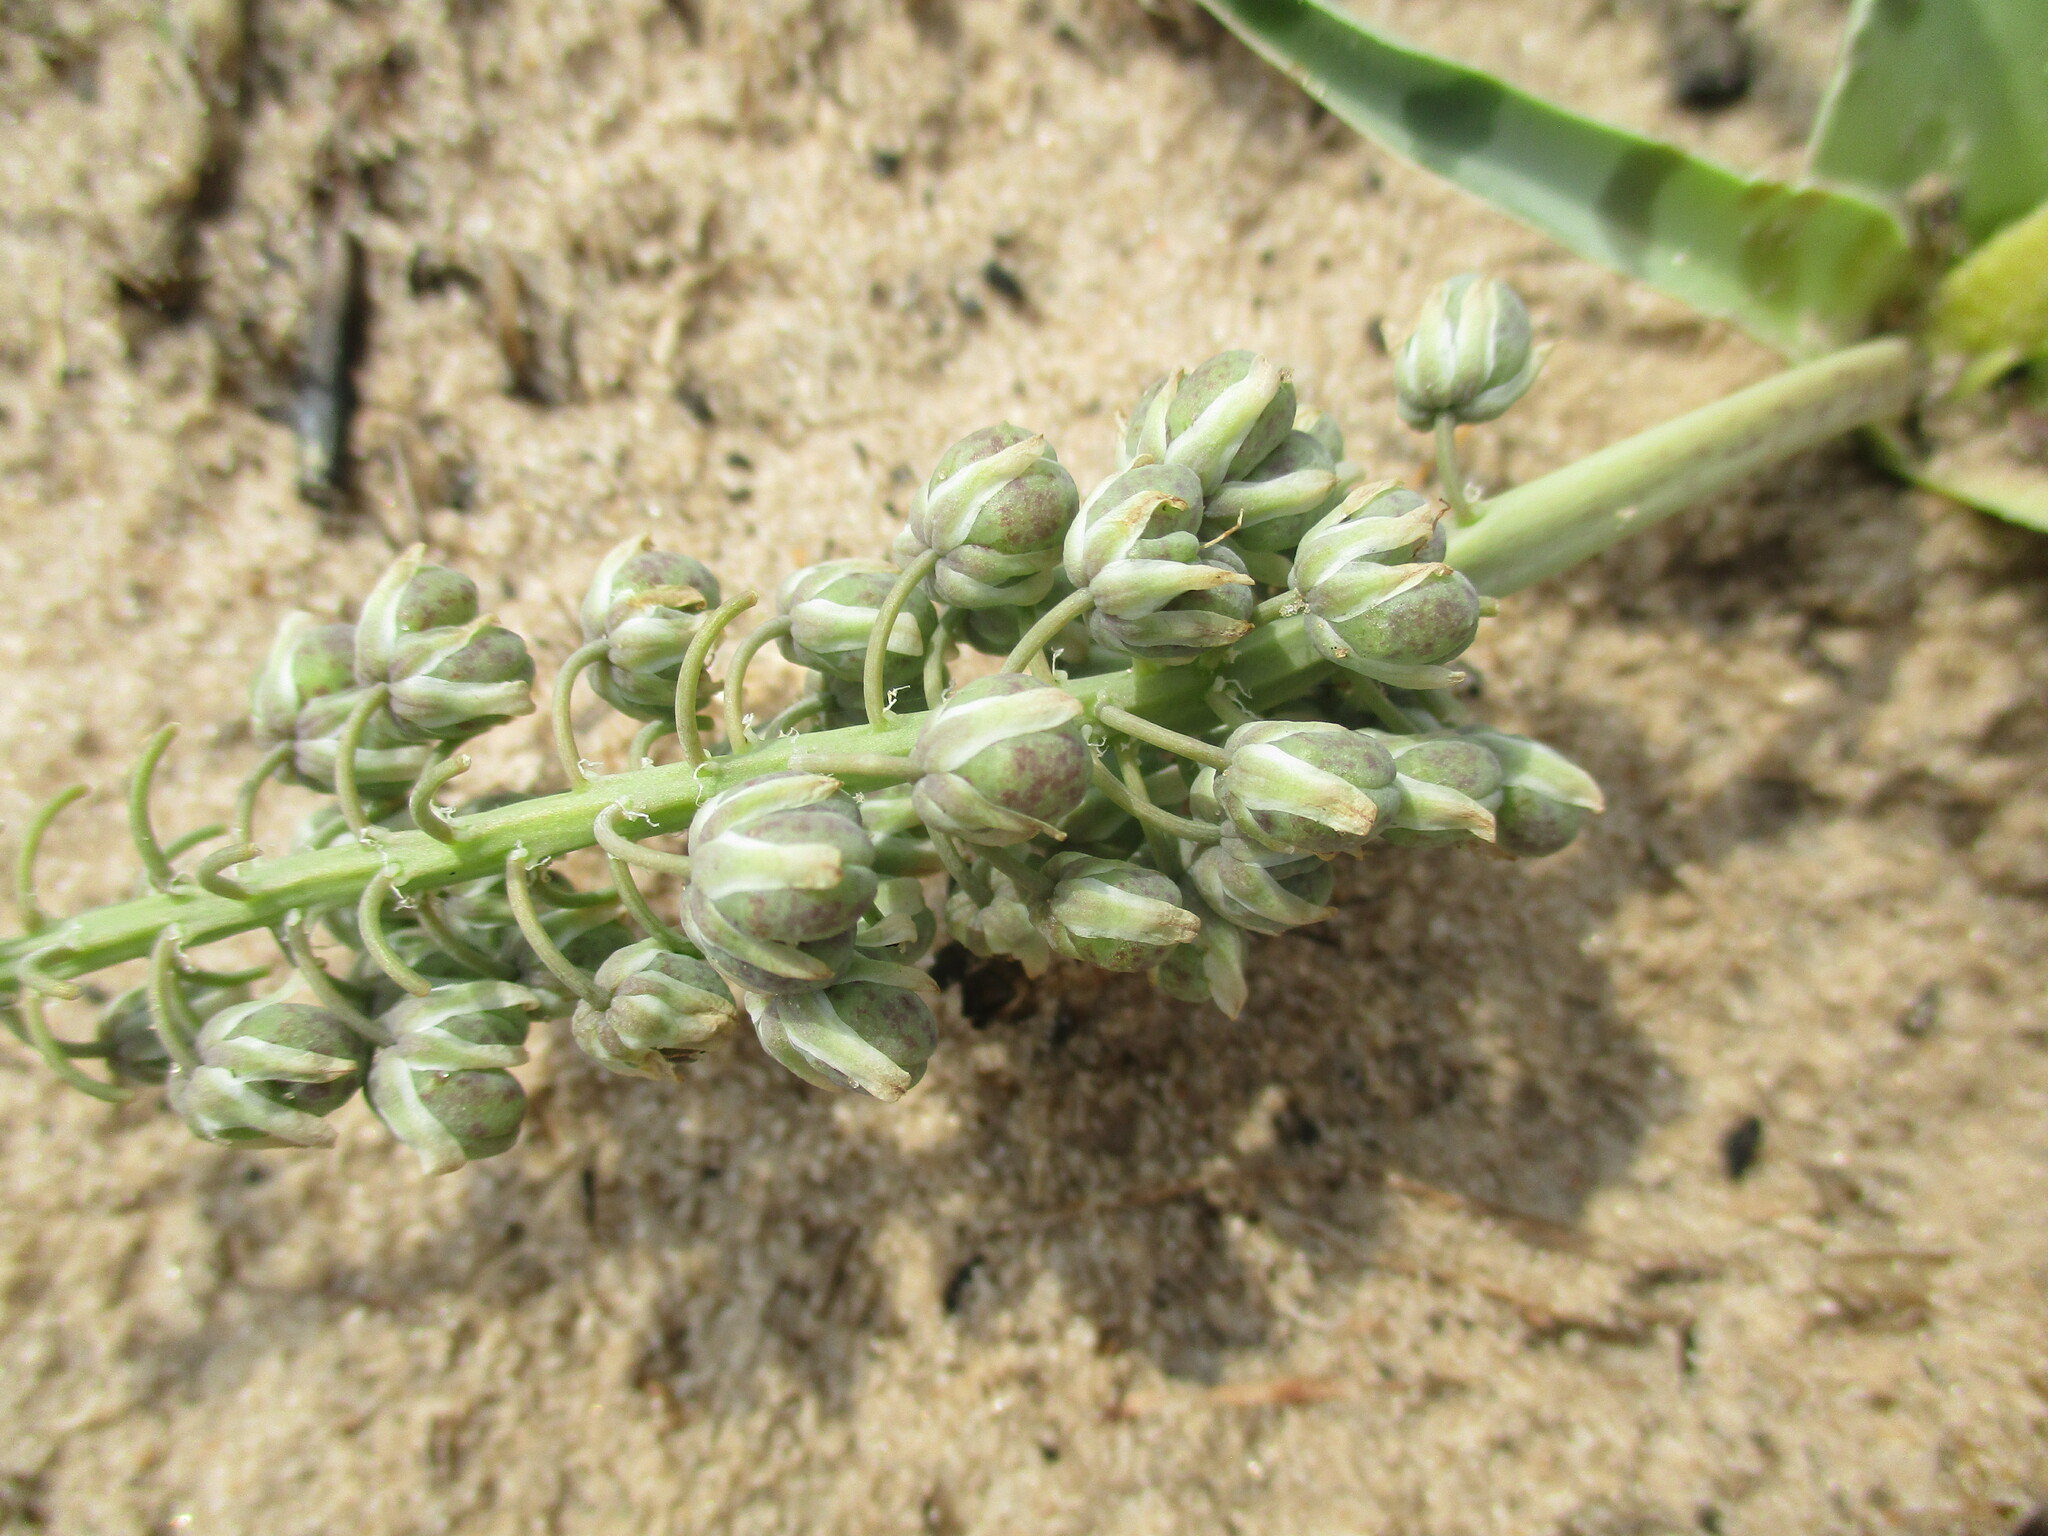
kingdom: Plantae
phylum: Tracheophyta
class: Liliopsida
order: Asparagales
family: Asparagaceae
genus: Ledebouria
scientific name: Ledebouria
